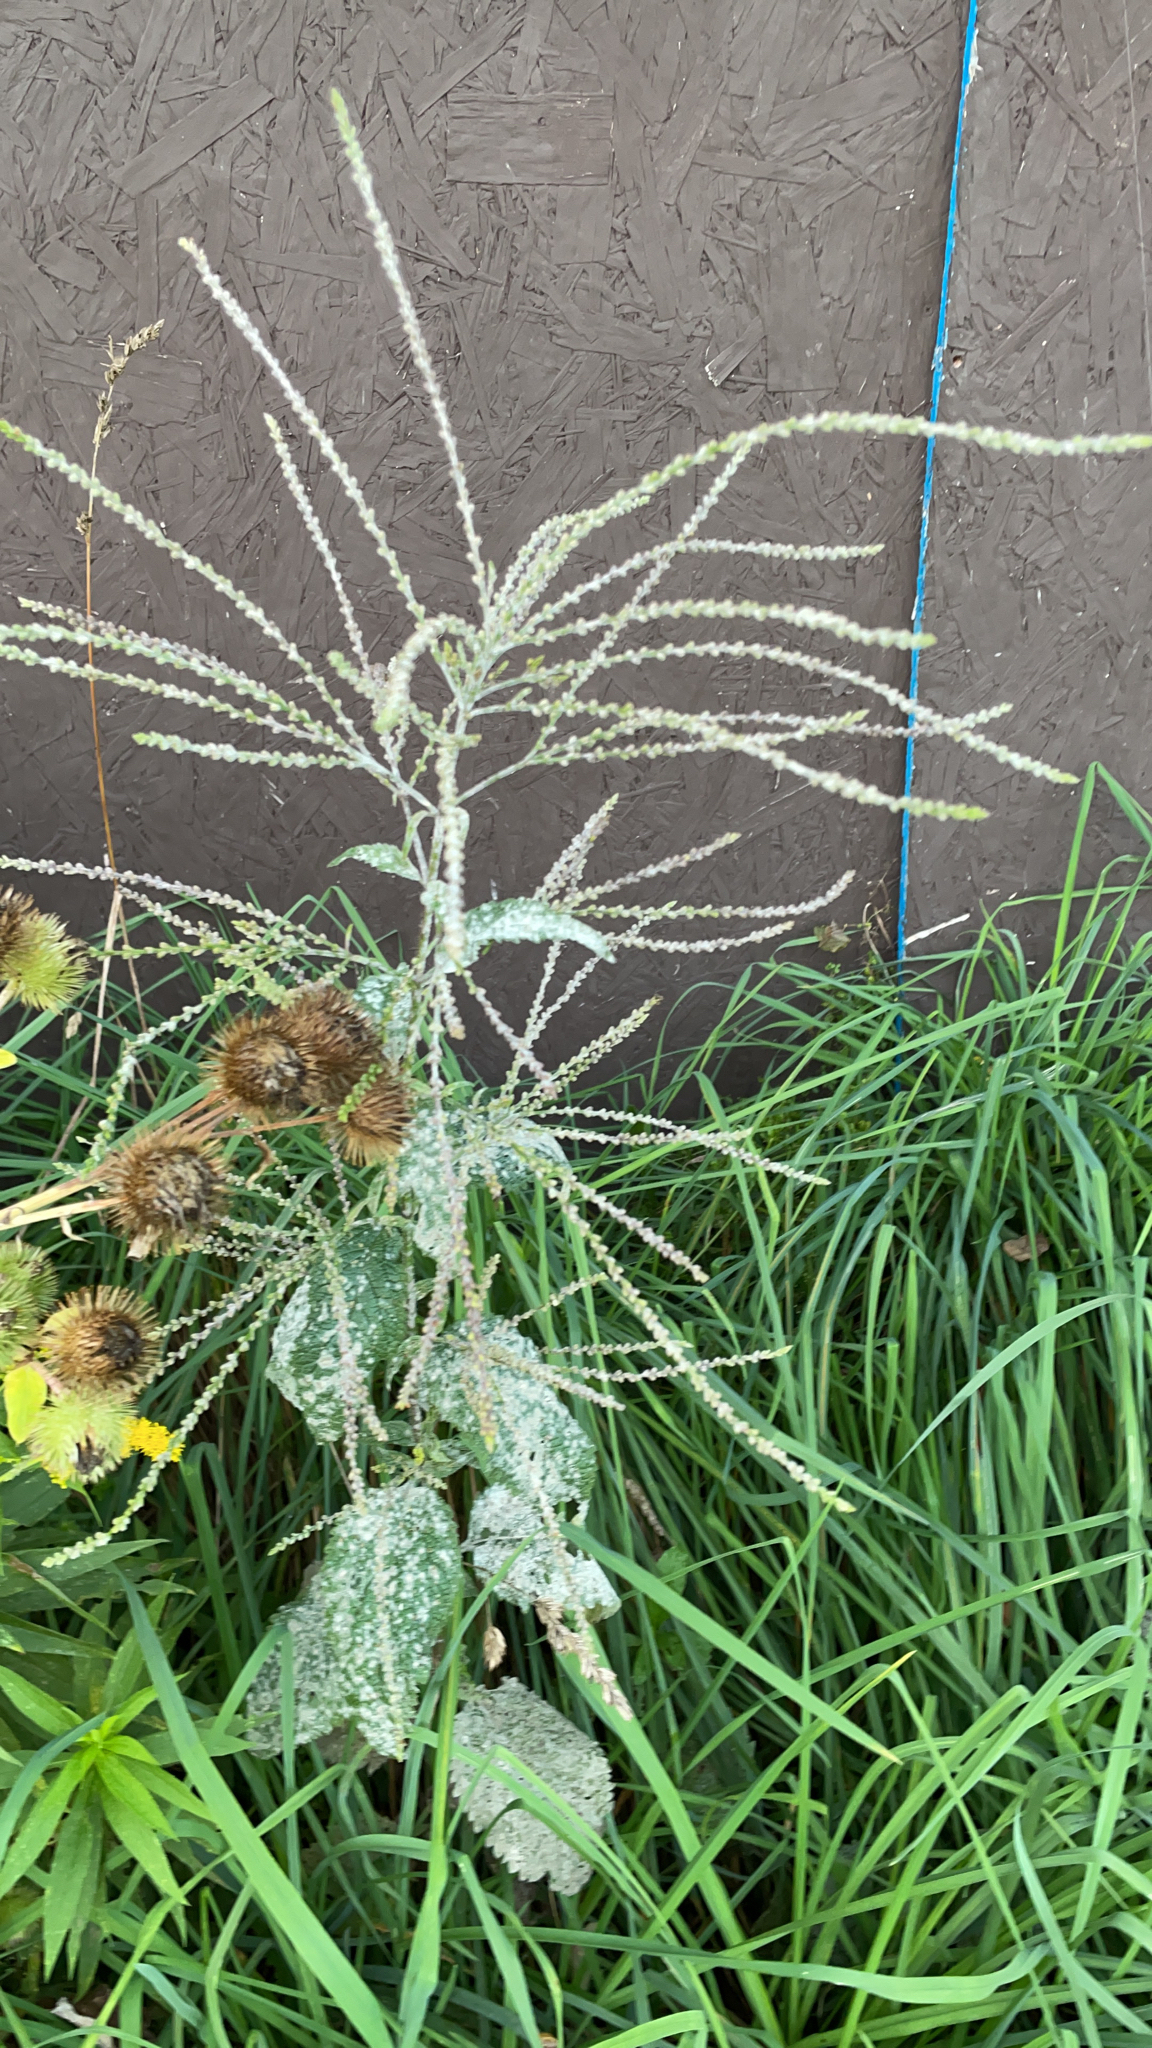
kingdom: Plantae
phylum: Tracheophyta
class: Magnoliopsida
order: Lamiales
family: Verbenaceae
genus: Verbena
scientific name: Verbena urticifolia
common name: Nettle-leaved vervain
